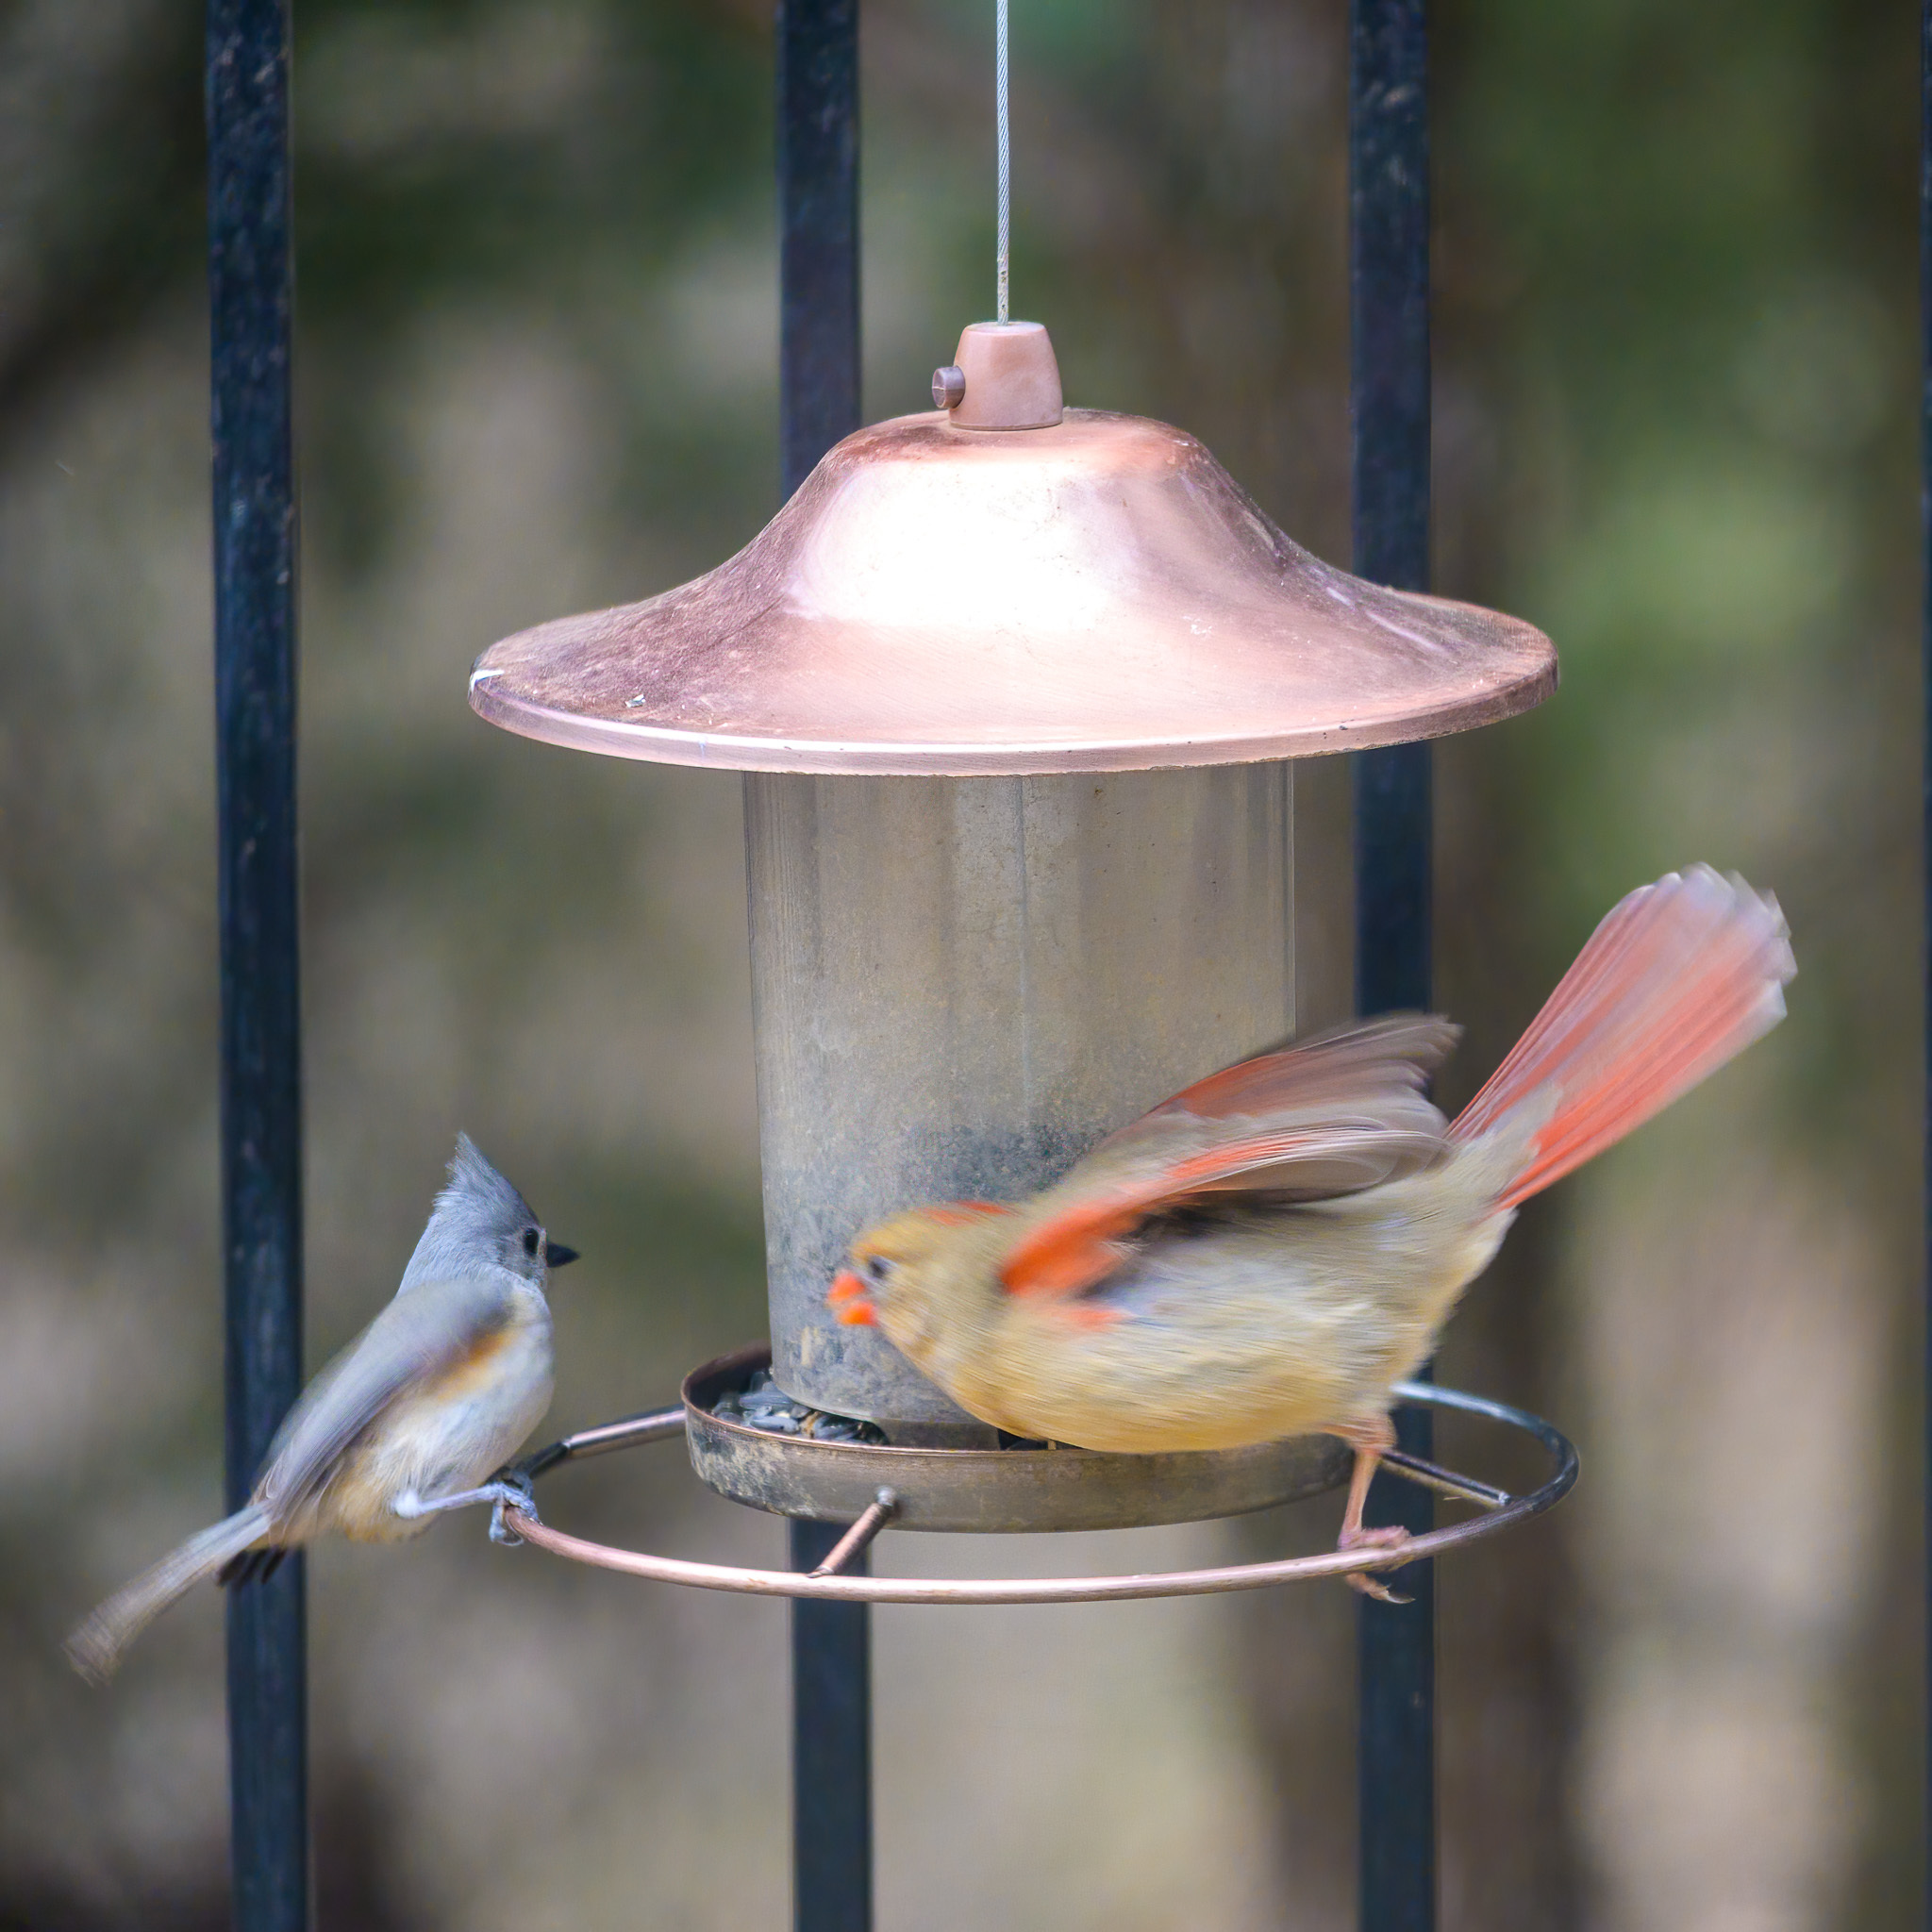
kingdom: Animalia
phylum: Chordata
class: Aves
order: Passeriformes
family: Paridae
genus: Baeolophus
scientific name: Baeolophus bicolor
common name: Tufted titmouse
